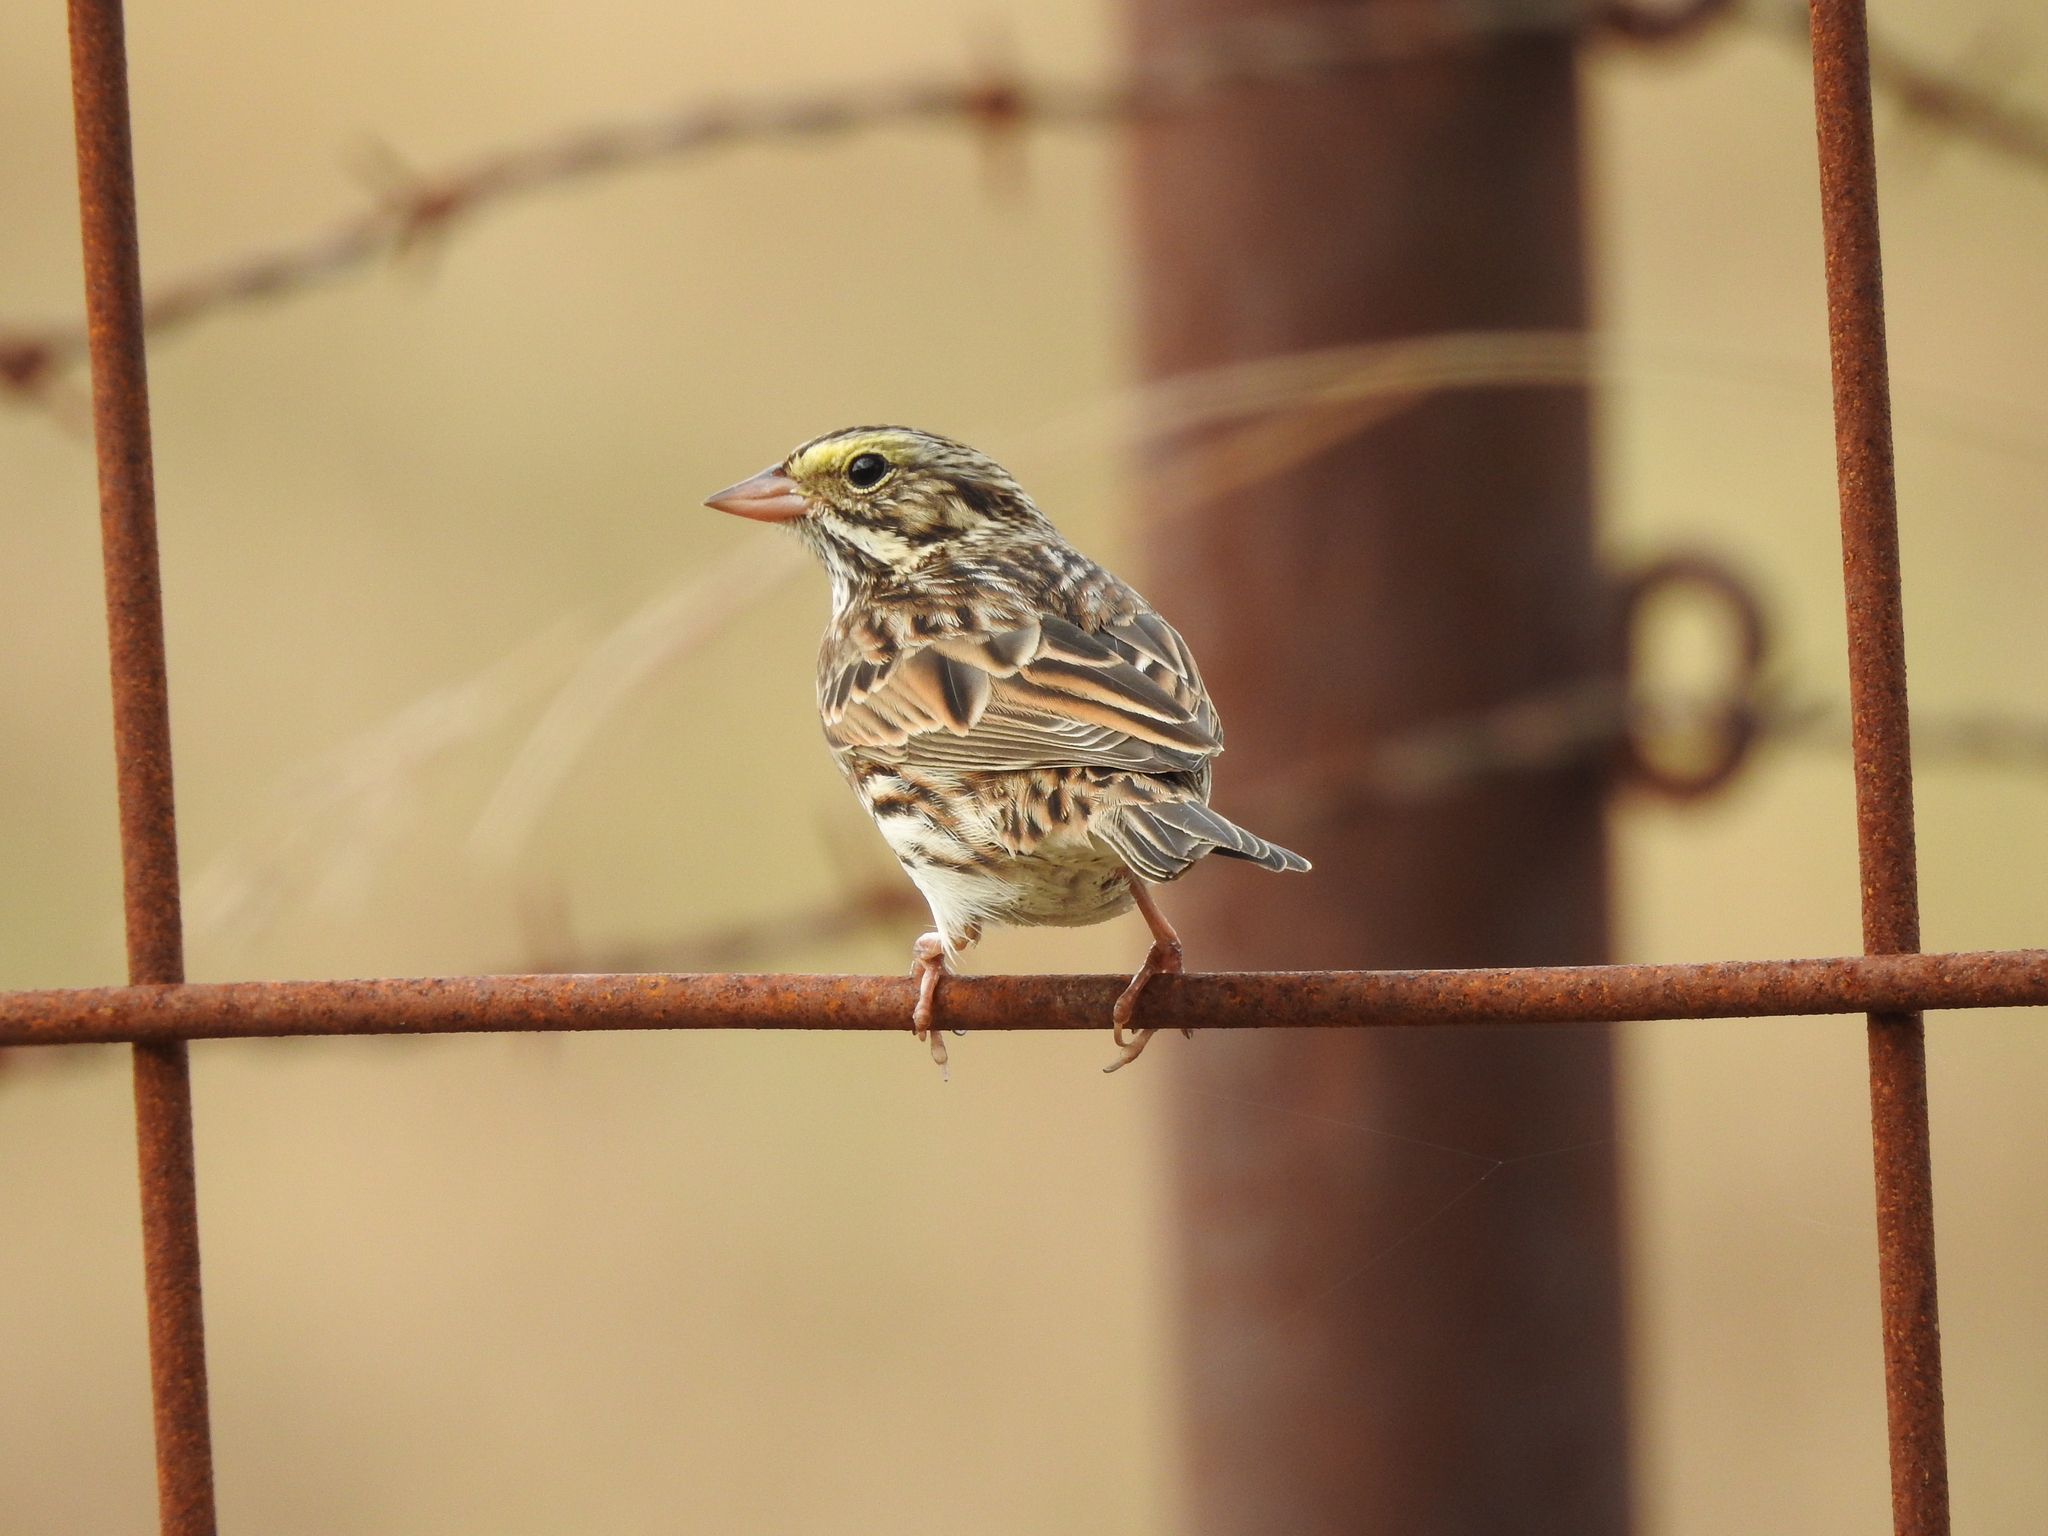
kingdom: Animalia
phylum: Chordata
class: Aves
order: Passeriformes
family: Passerellidae
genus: Passerculus
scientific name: Passerculus sandwichensis
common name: Savannah sparrow
